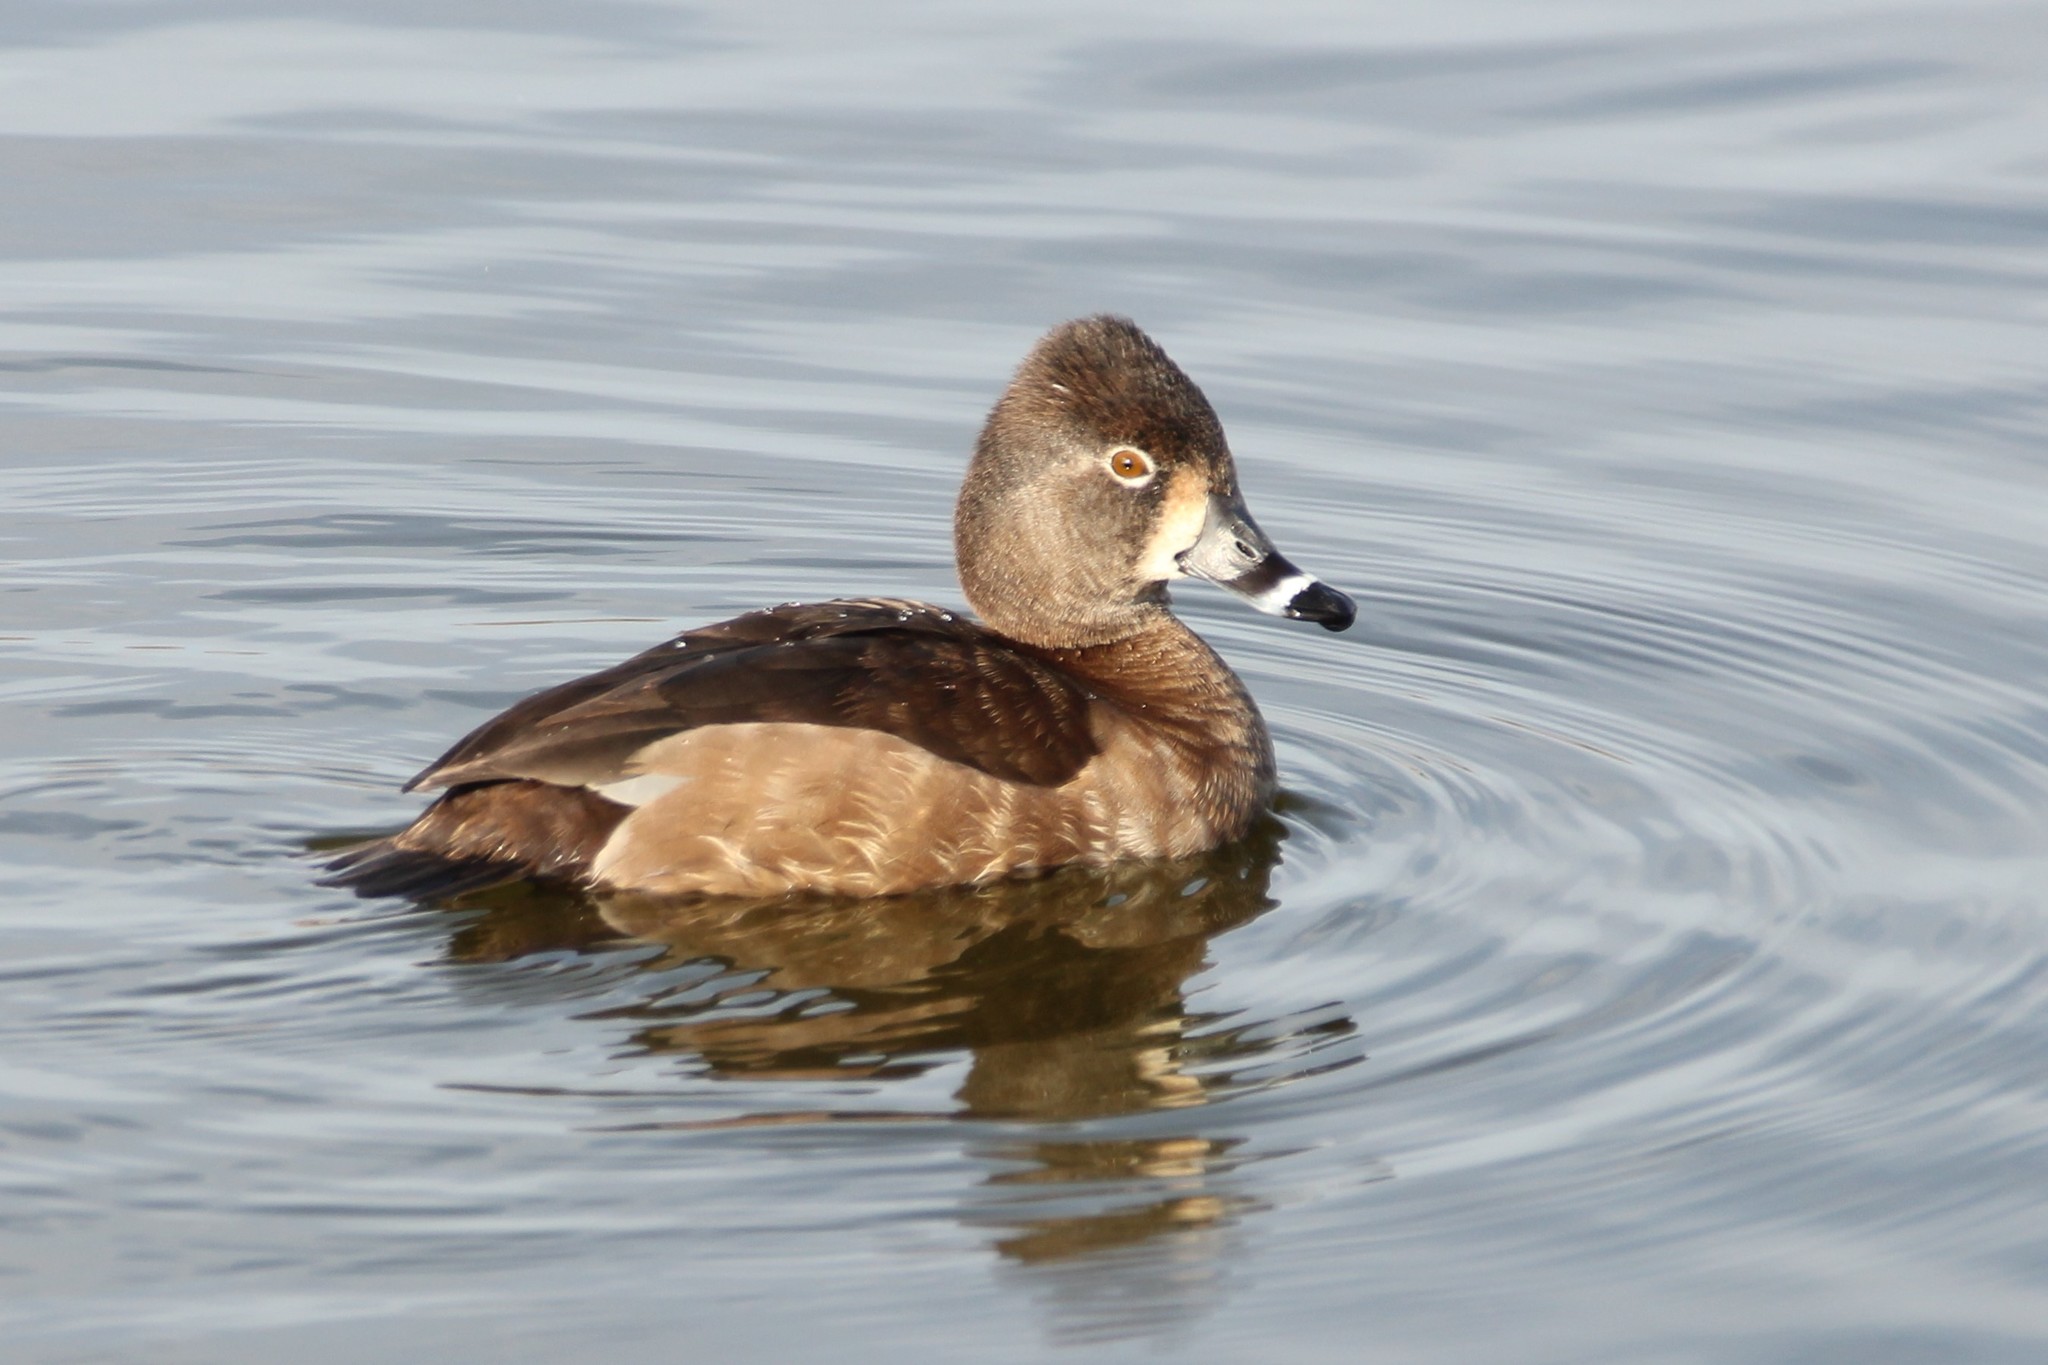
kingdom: Animalia
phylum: Chordata
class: Aves
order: Anseriformes
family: Anatidae
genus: Aythya
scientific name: Aythya collaris
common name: Ring-necked duck
